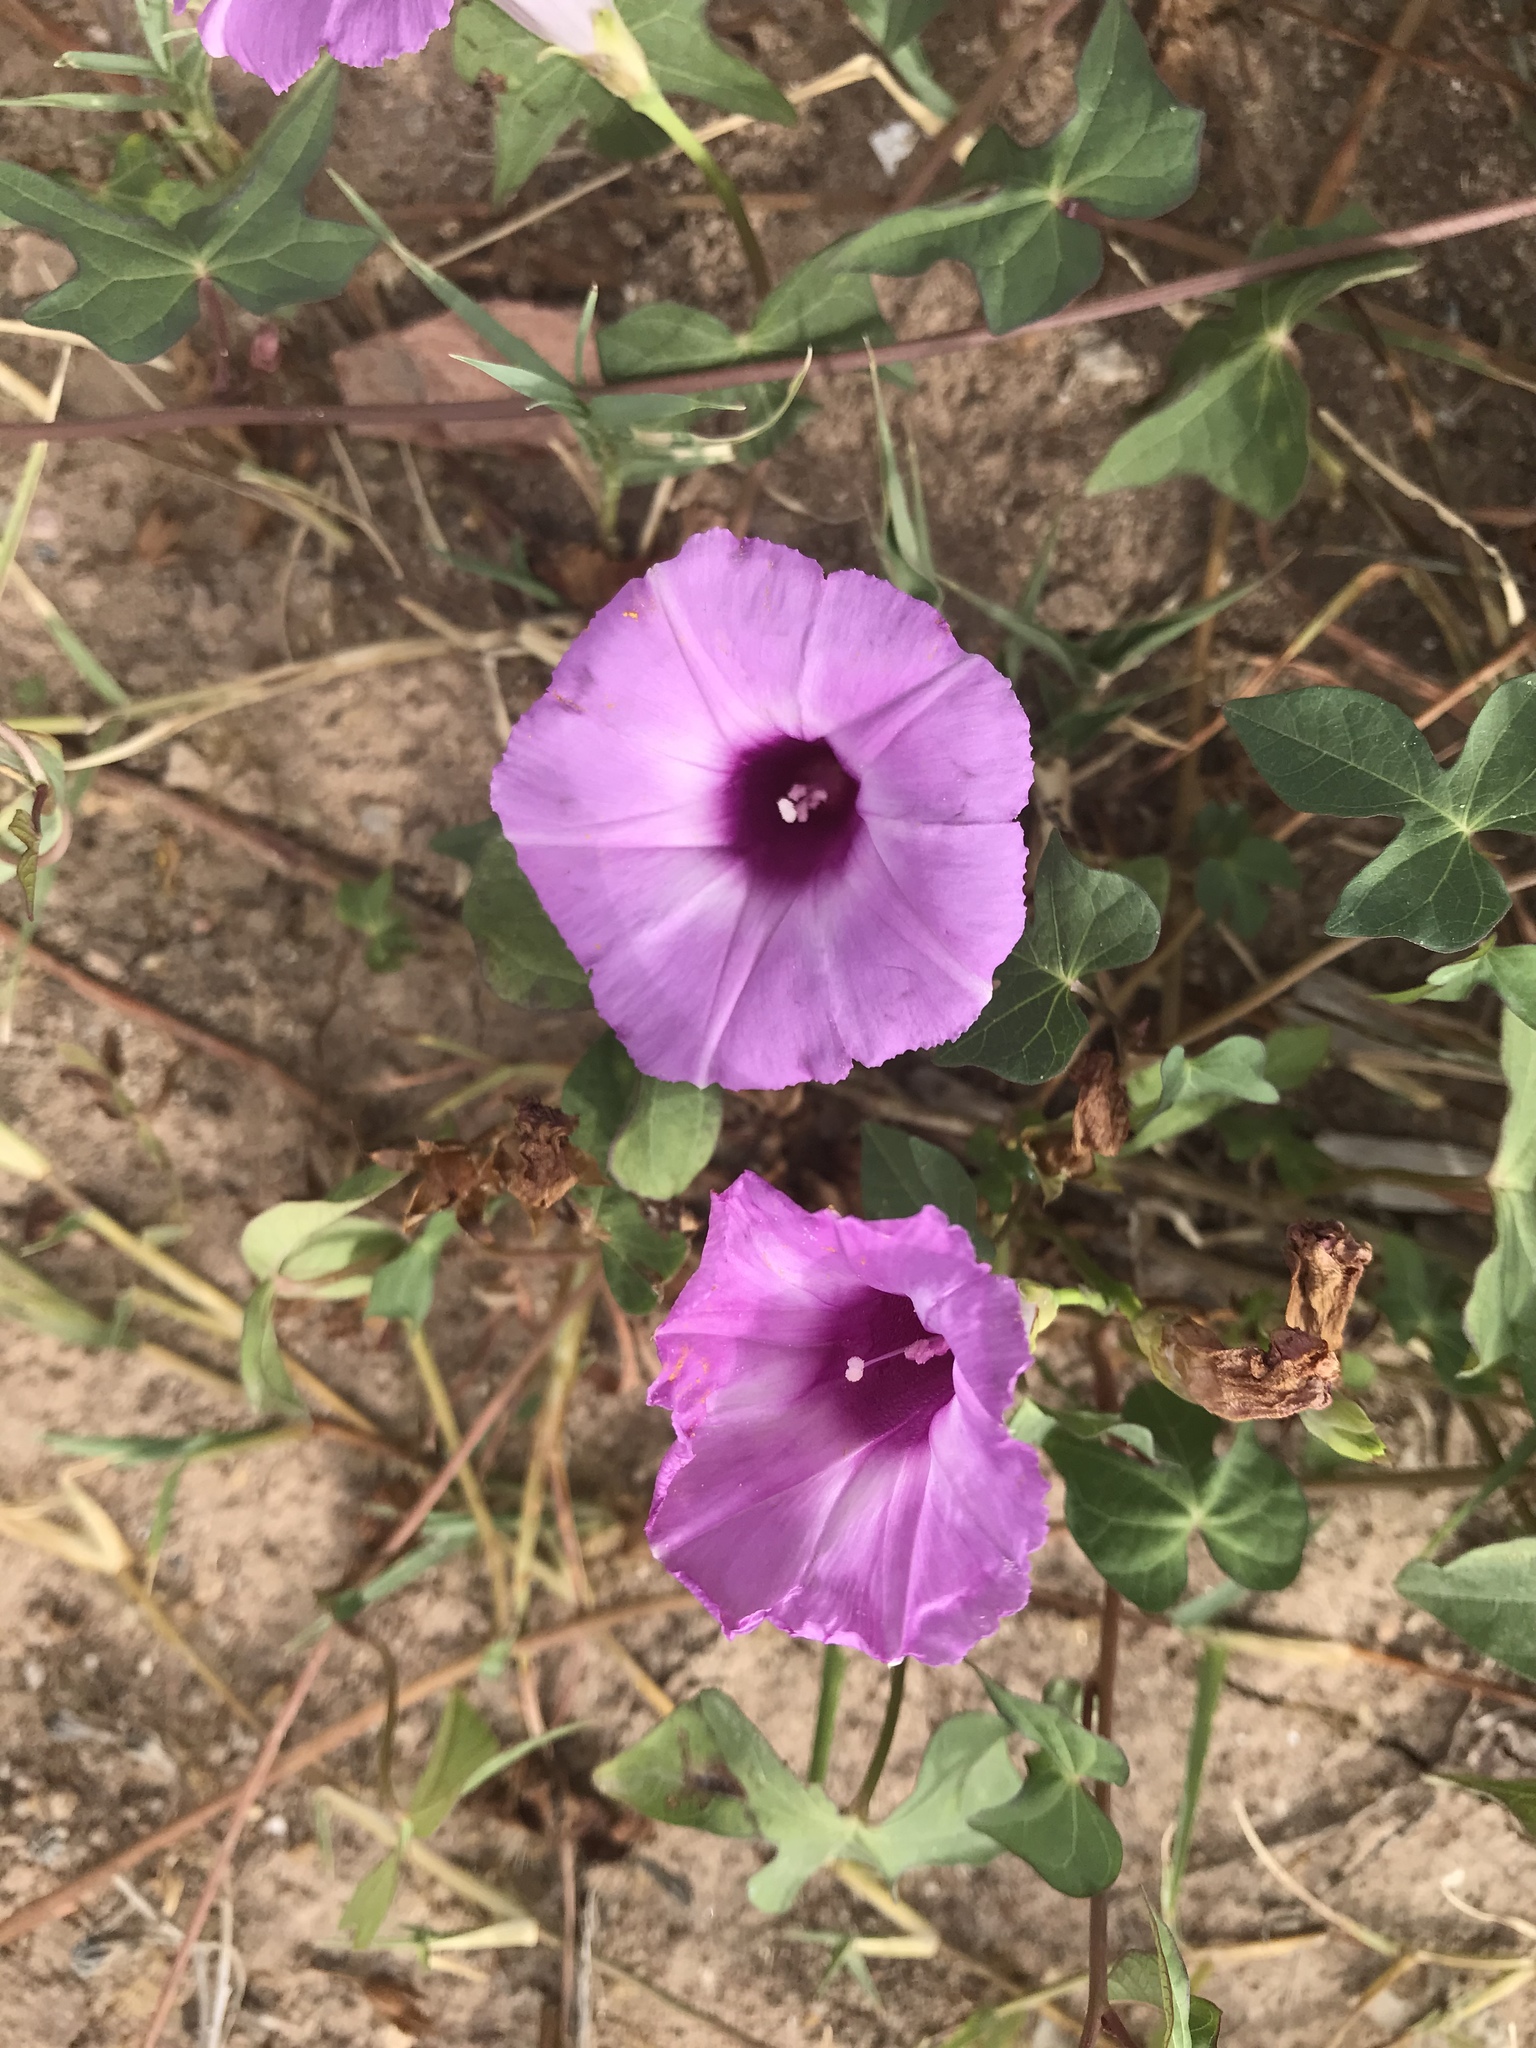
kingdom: Plantae
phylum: Tracheophyta
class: Magnoliopsida
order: Solanales
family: Convolvulaceae
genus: Ipomoea
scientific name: Ipomoea cordatotriloba
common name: Cotton morning glory
